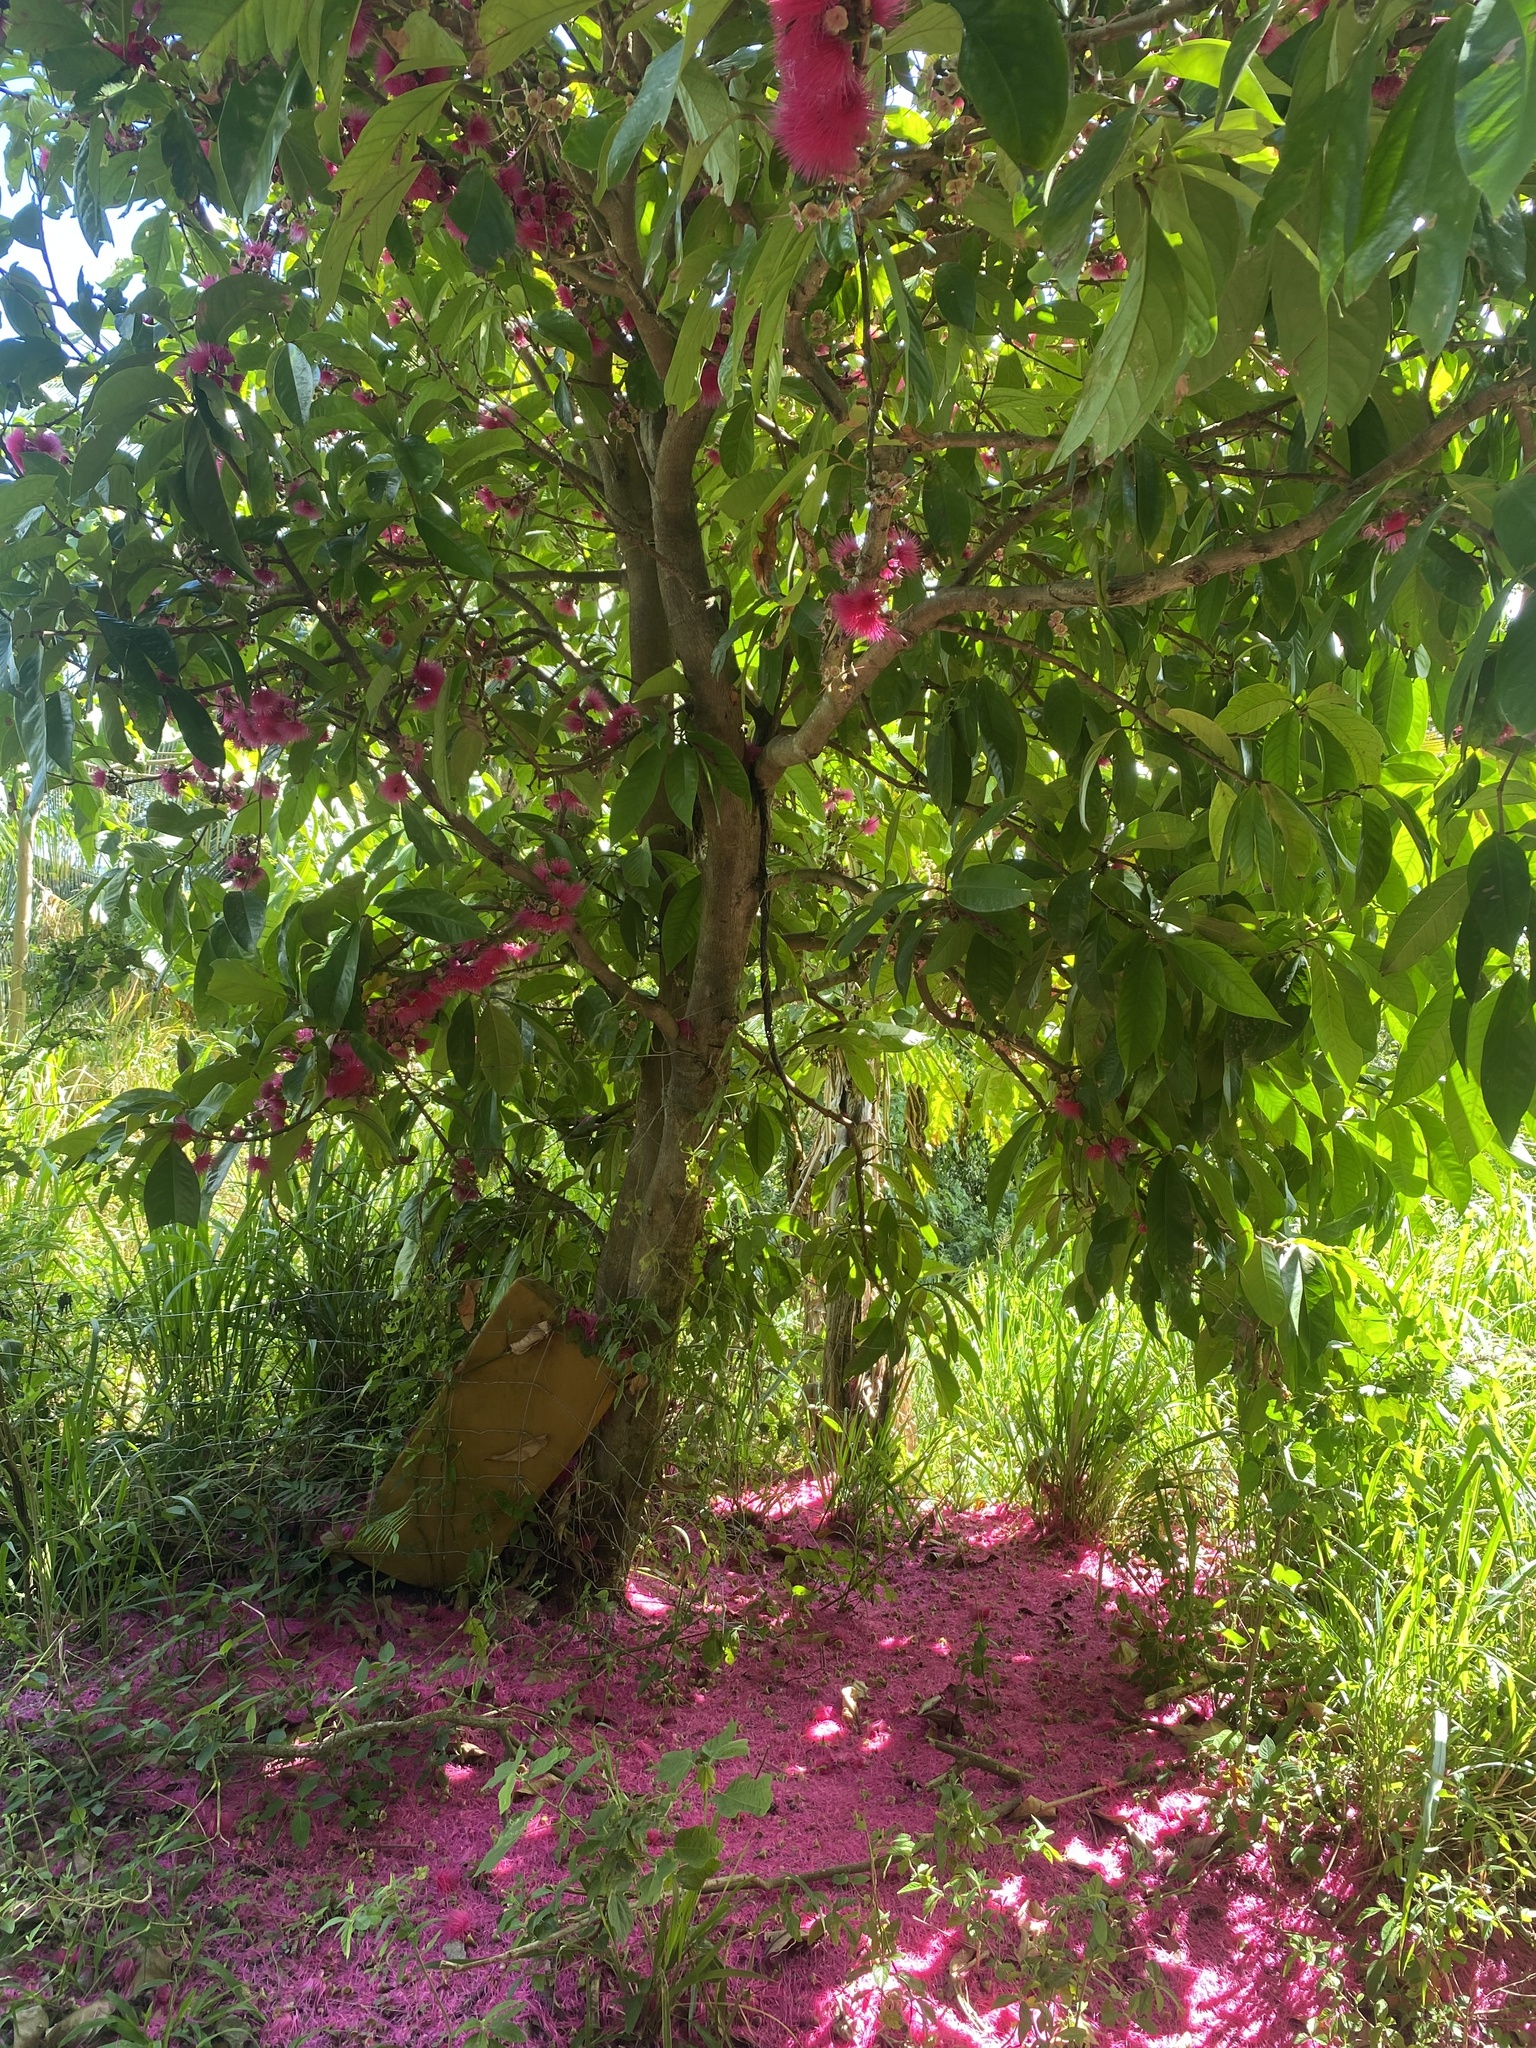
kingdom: Plantae
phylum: Tracheophyta
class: Magnoliopsida
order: Myrtales
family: Myrtaceae
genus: Syzygium
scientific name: Syzygium malaccense
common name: Malaysian apple
